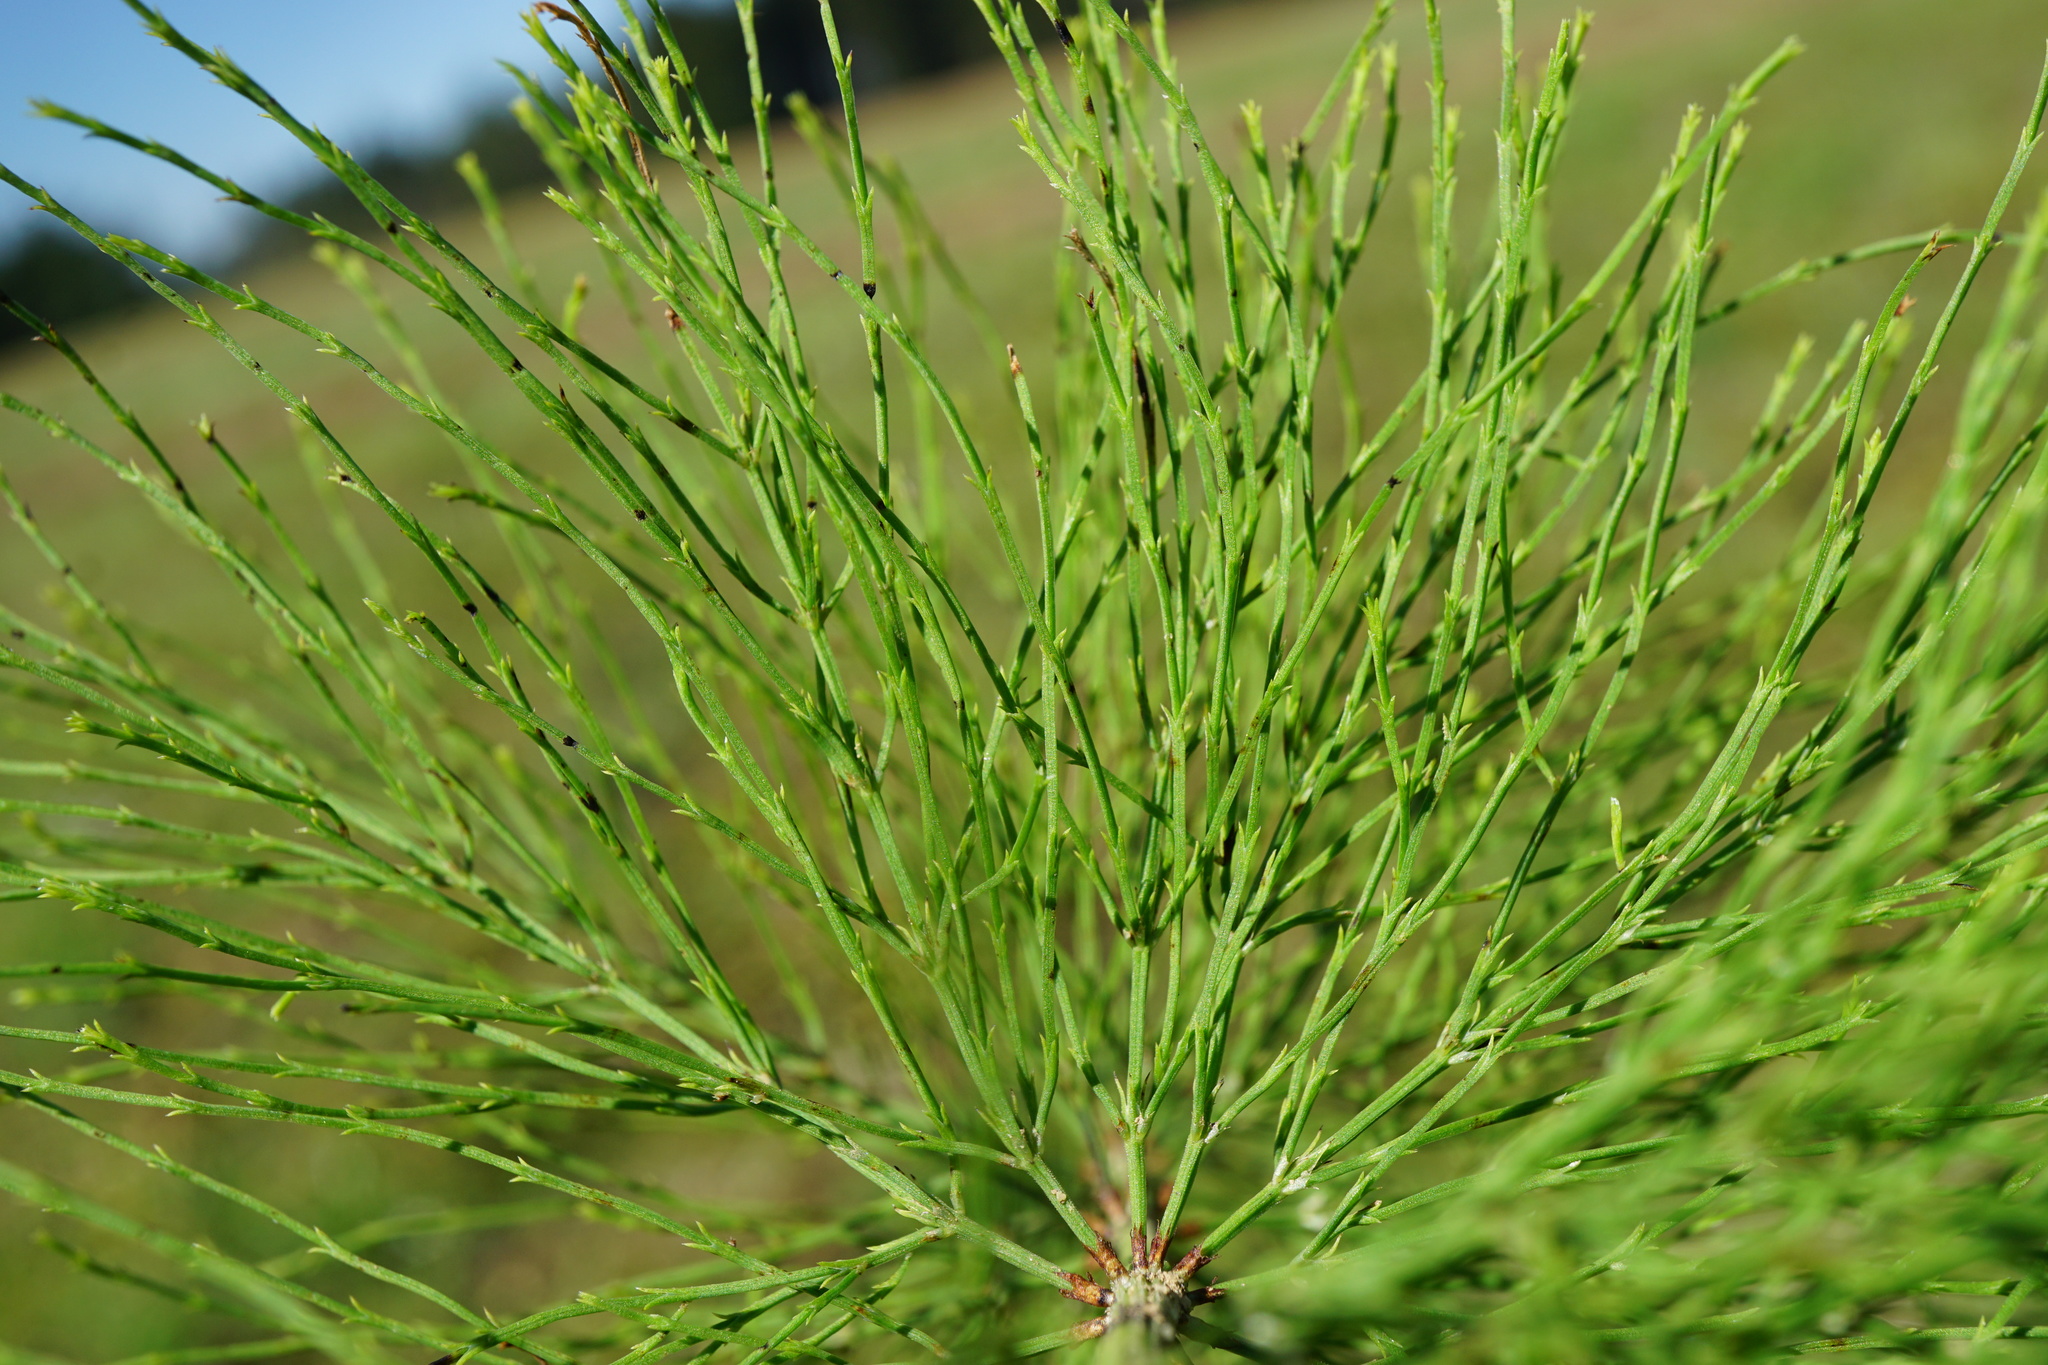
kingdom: Plantae
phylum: Tracheophyta
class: Polypodiopsida
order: Equisetales
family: Equisetaceae
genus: Equisetum
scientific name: Equisetum sylvaticum
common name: Wood horsetail
